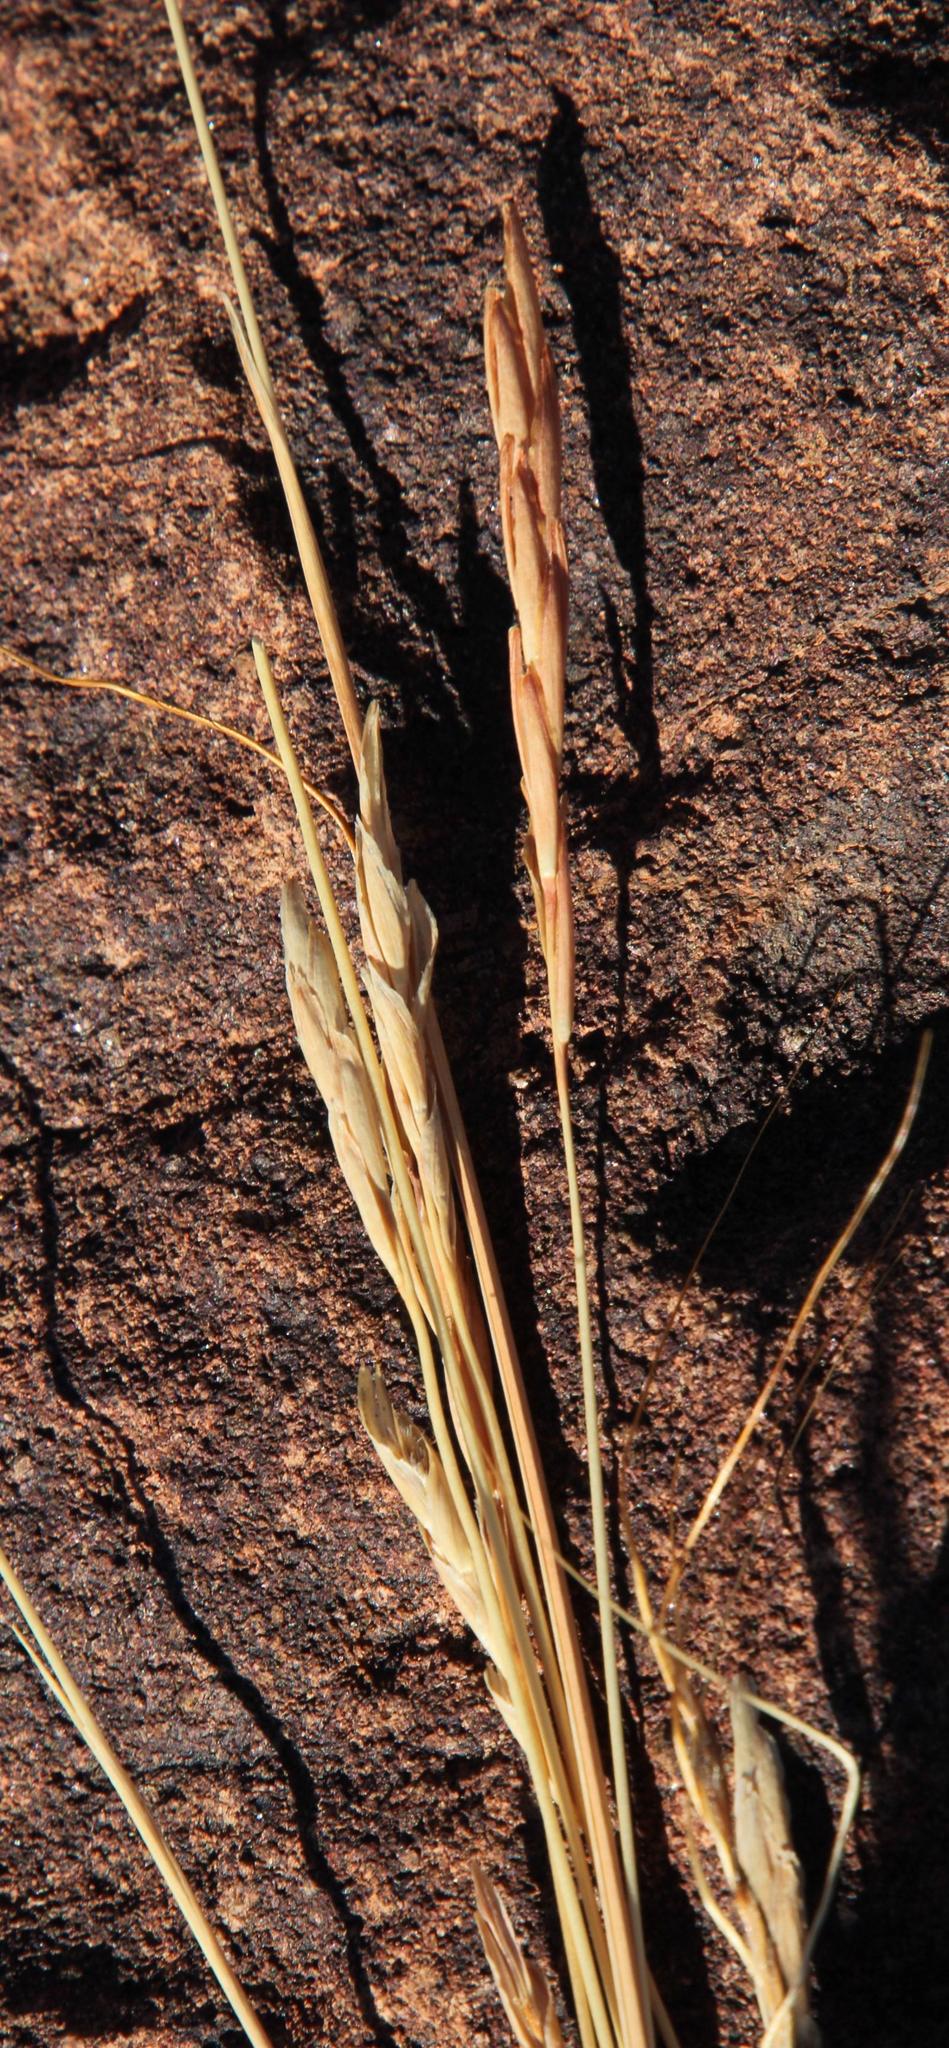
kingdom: Plantae
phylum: Tracheophyta
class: Liliopsida
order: Poales
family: Poaceae
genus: Heteropogon
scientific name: Heteropogon contortus
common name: Tanglehead
